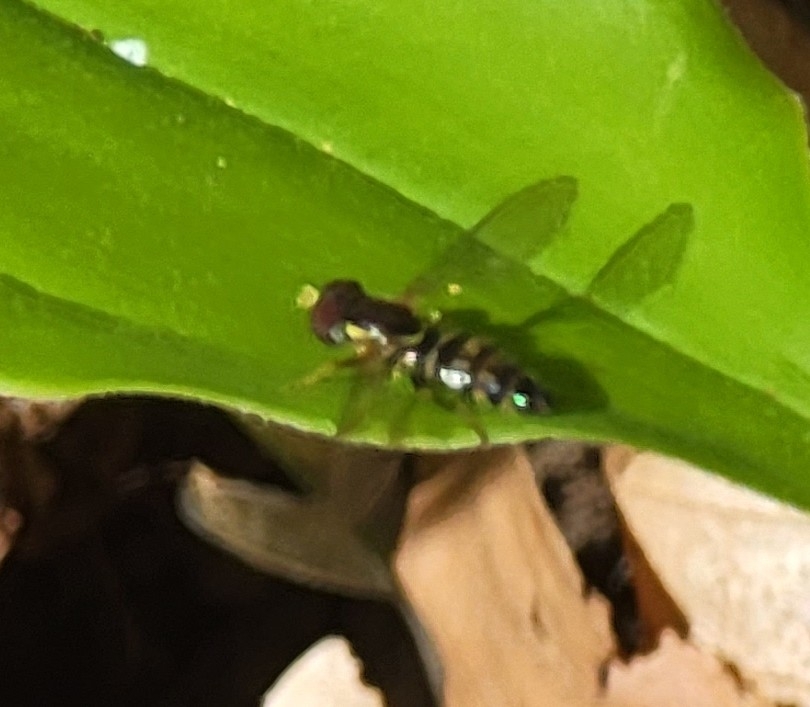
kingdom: Animalia
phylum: Arthropoda
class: Insecta
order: Diptera
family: Syrphidae
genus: Toxomerus
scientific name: Toxomerus geminatus
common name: Eastern calligrapher
